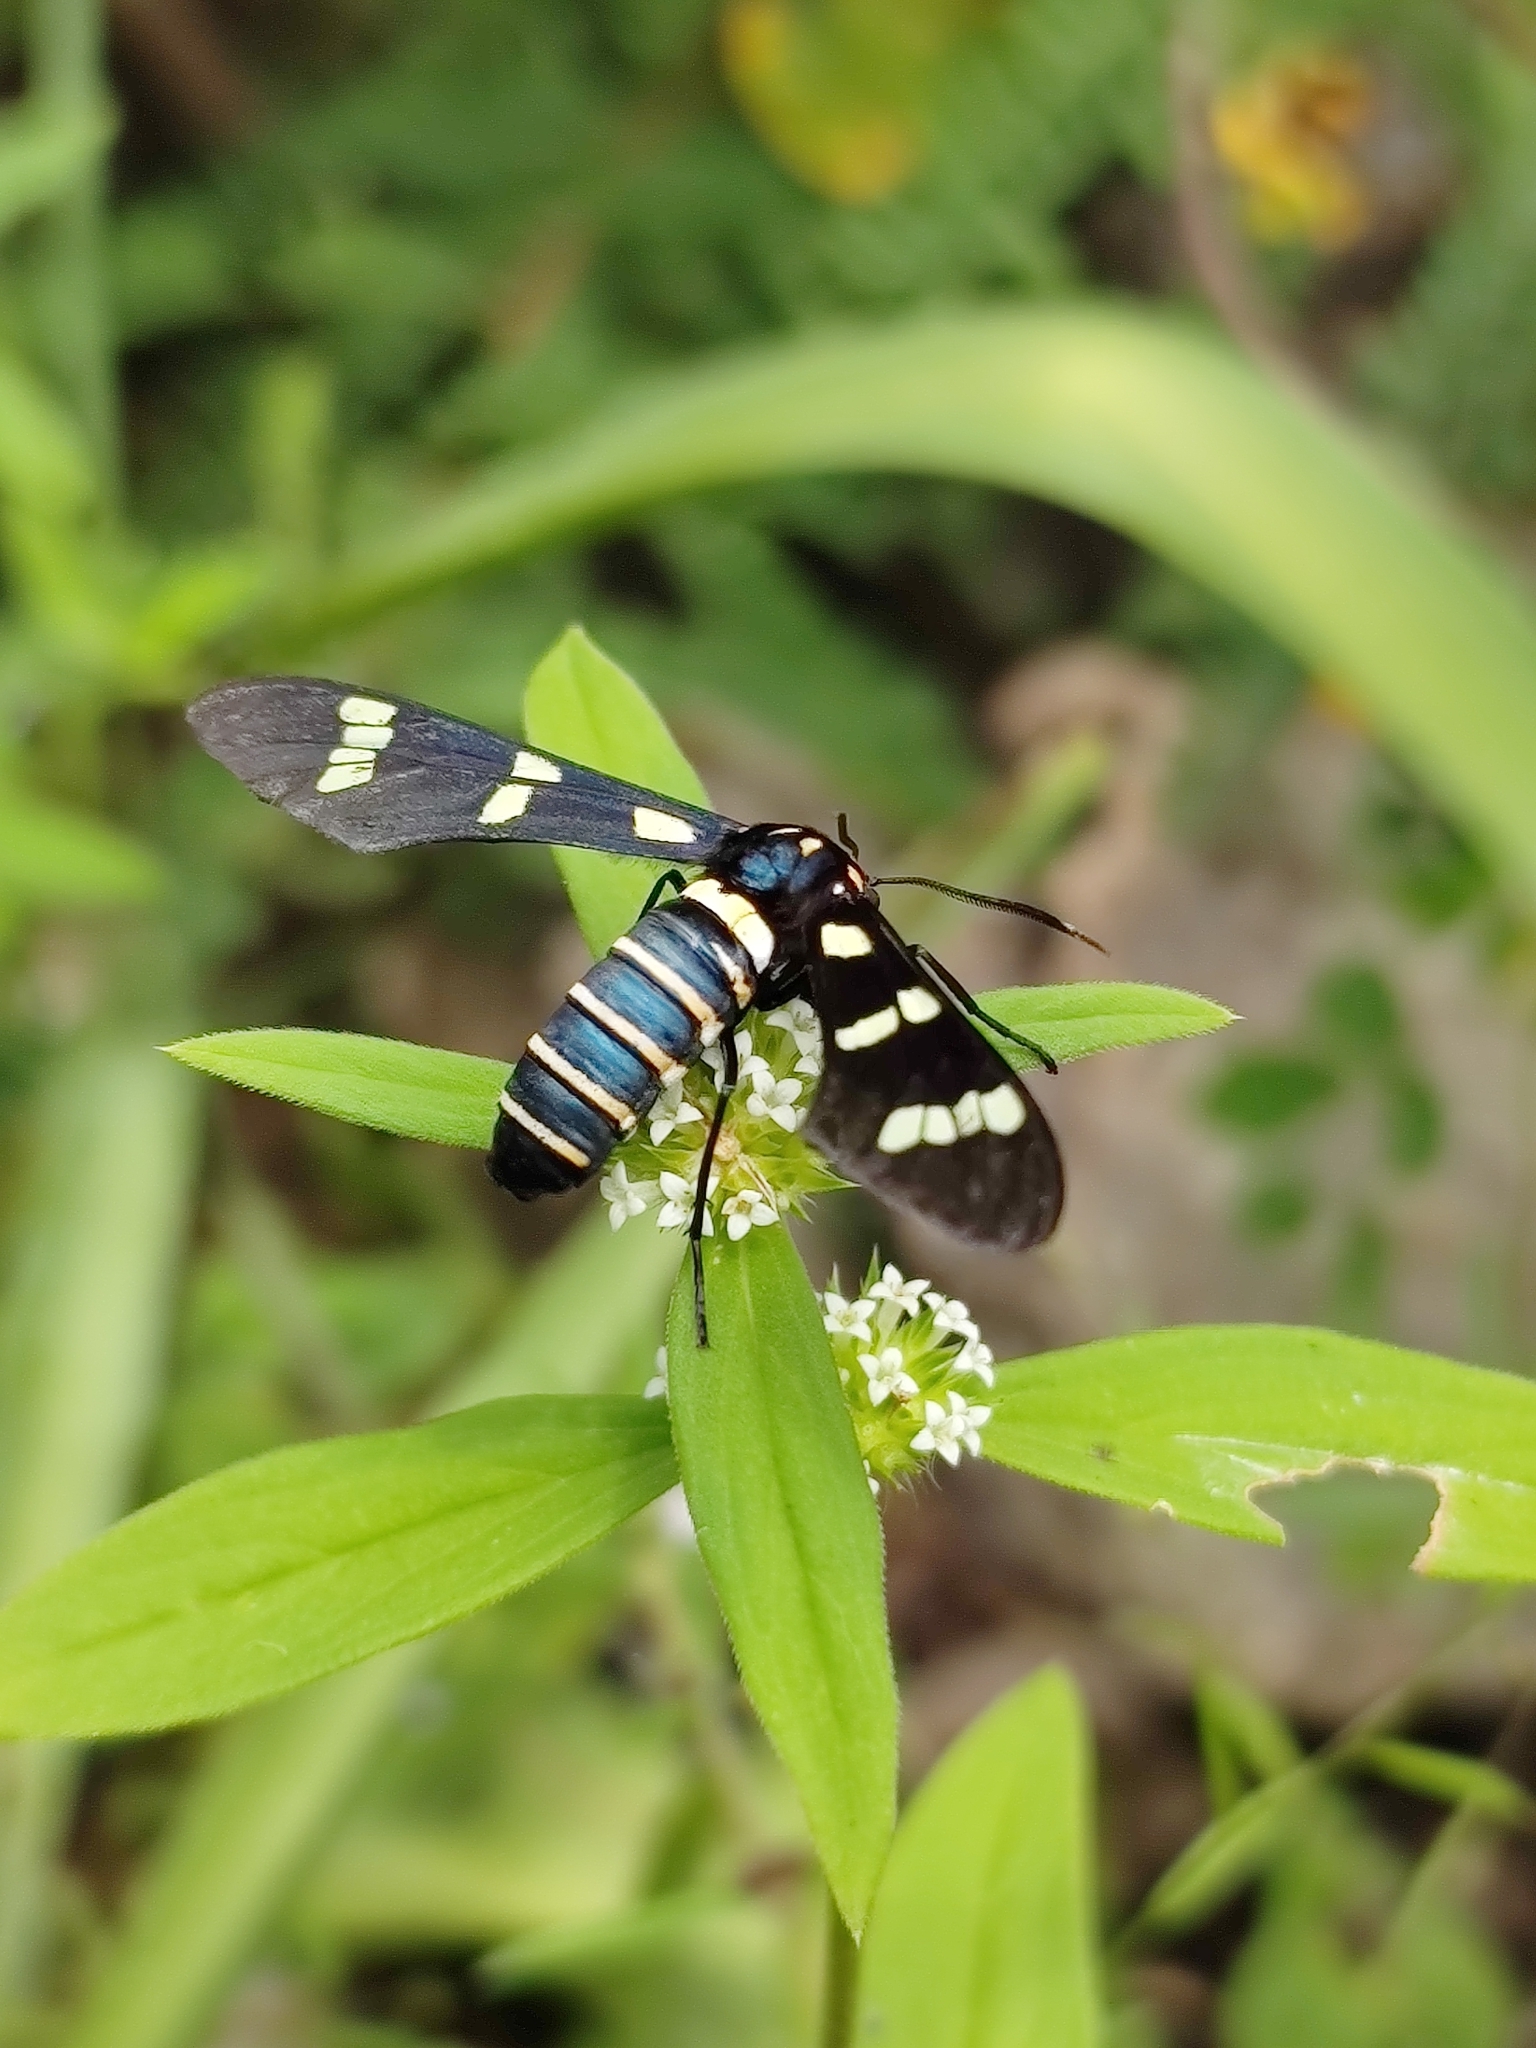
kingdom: Animalia
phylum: Arthropoda
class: Insecta
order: Lepidoptera
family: Erebidae
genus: Syntomeida
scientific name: Syntomeida melanthus
